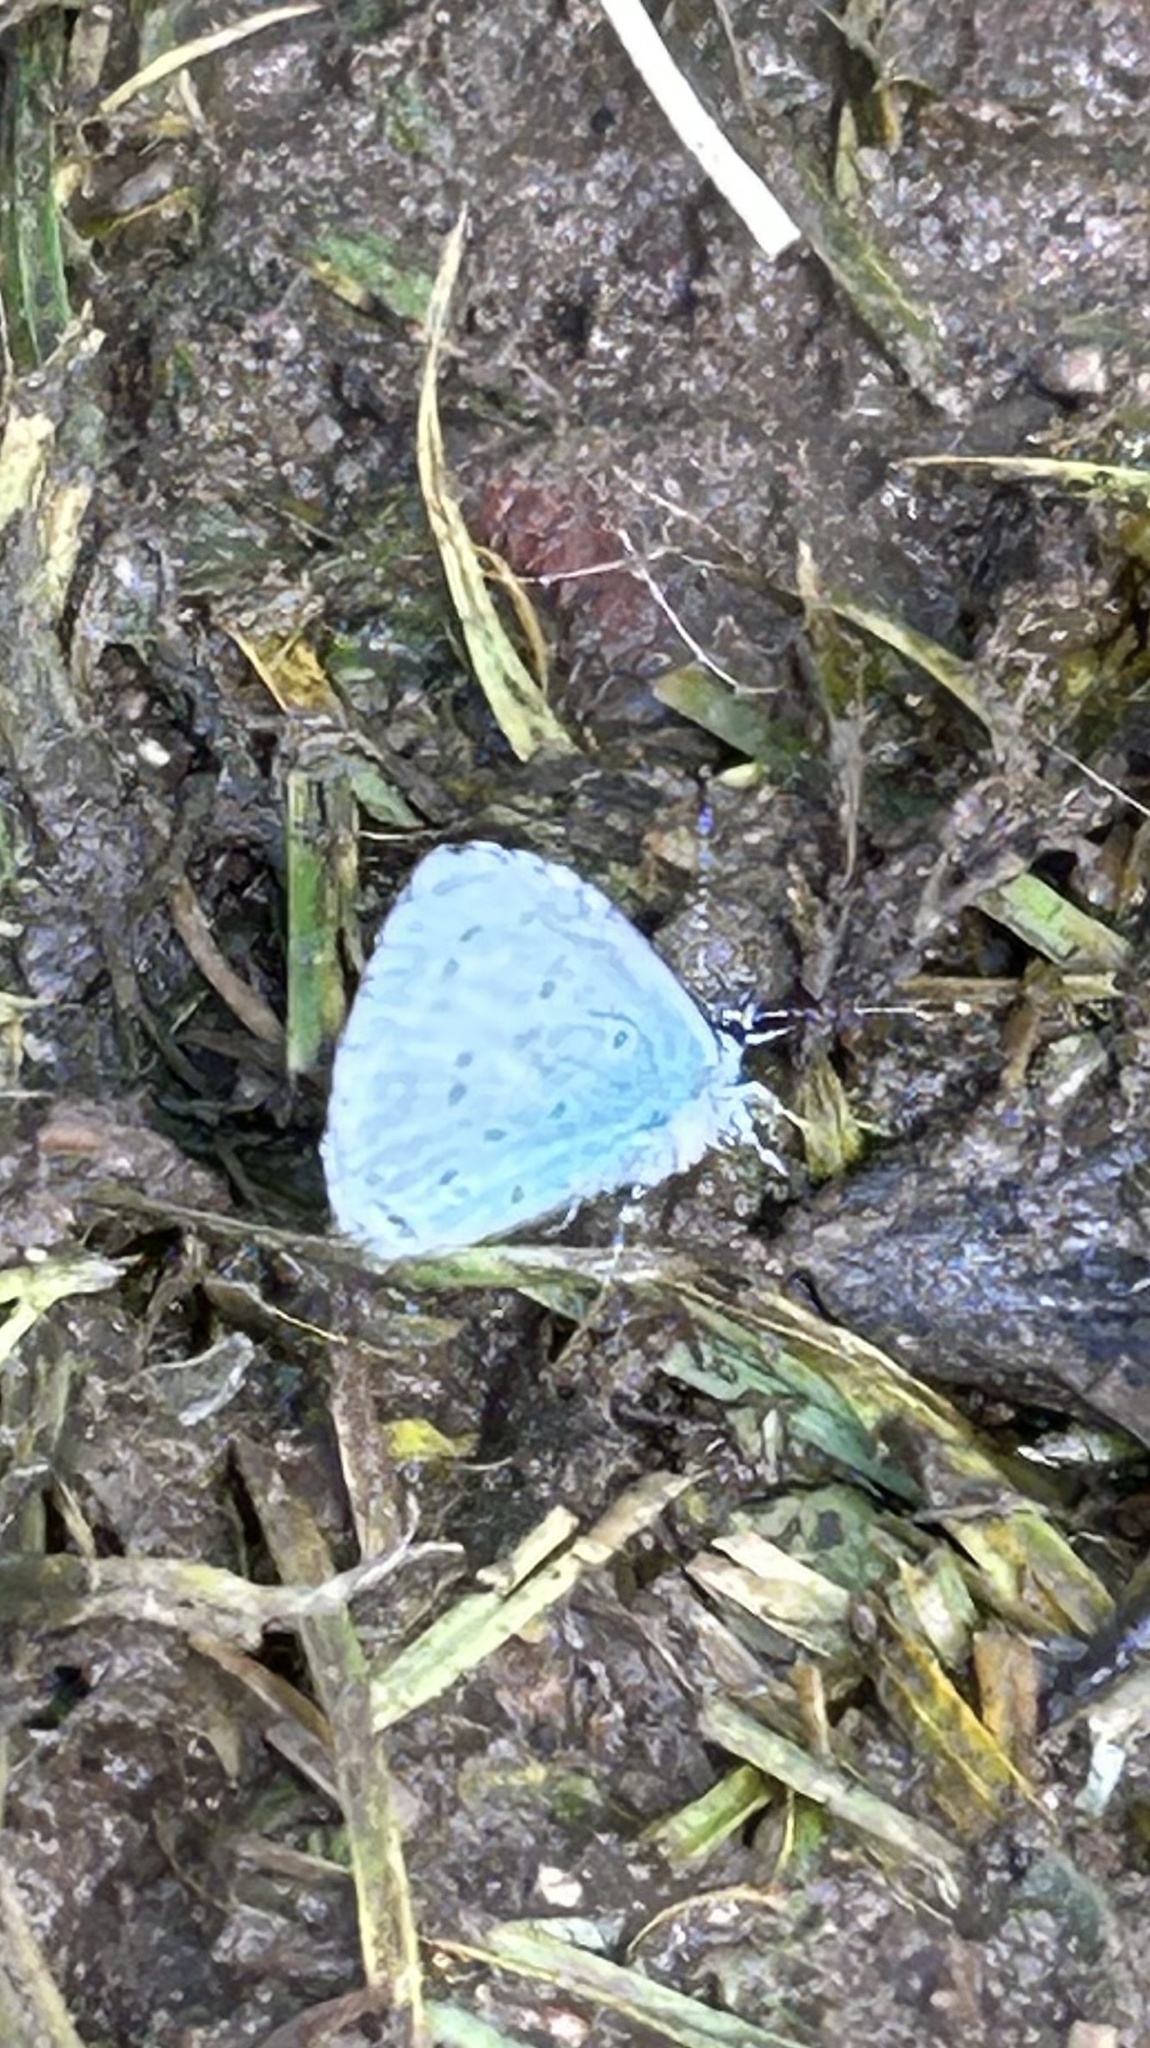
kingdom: Animalia
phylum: Arthropoda
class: Insecta
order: Lepidoptera
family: Lycaenidae
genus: Celastrina
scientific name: Celastrina argiolus
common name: Holly blue
